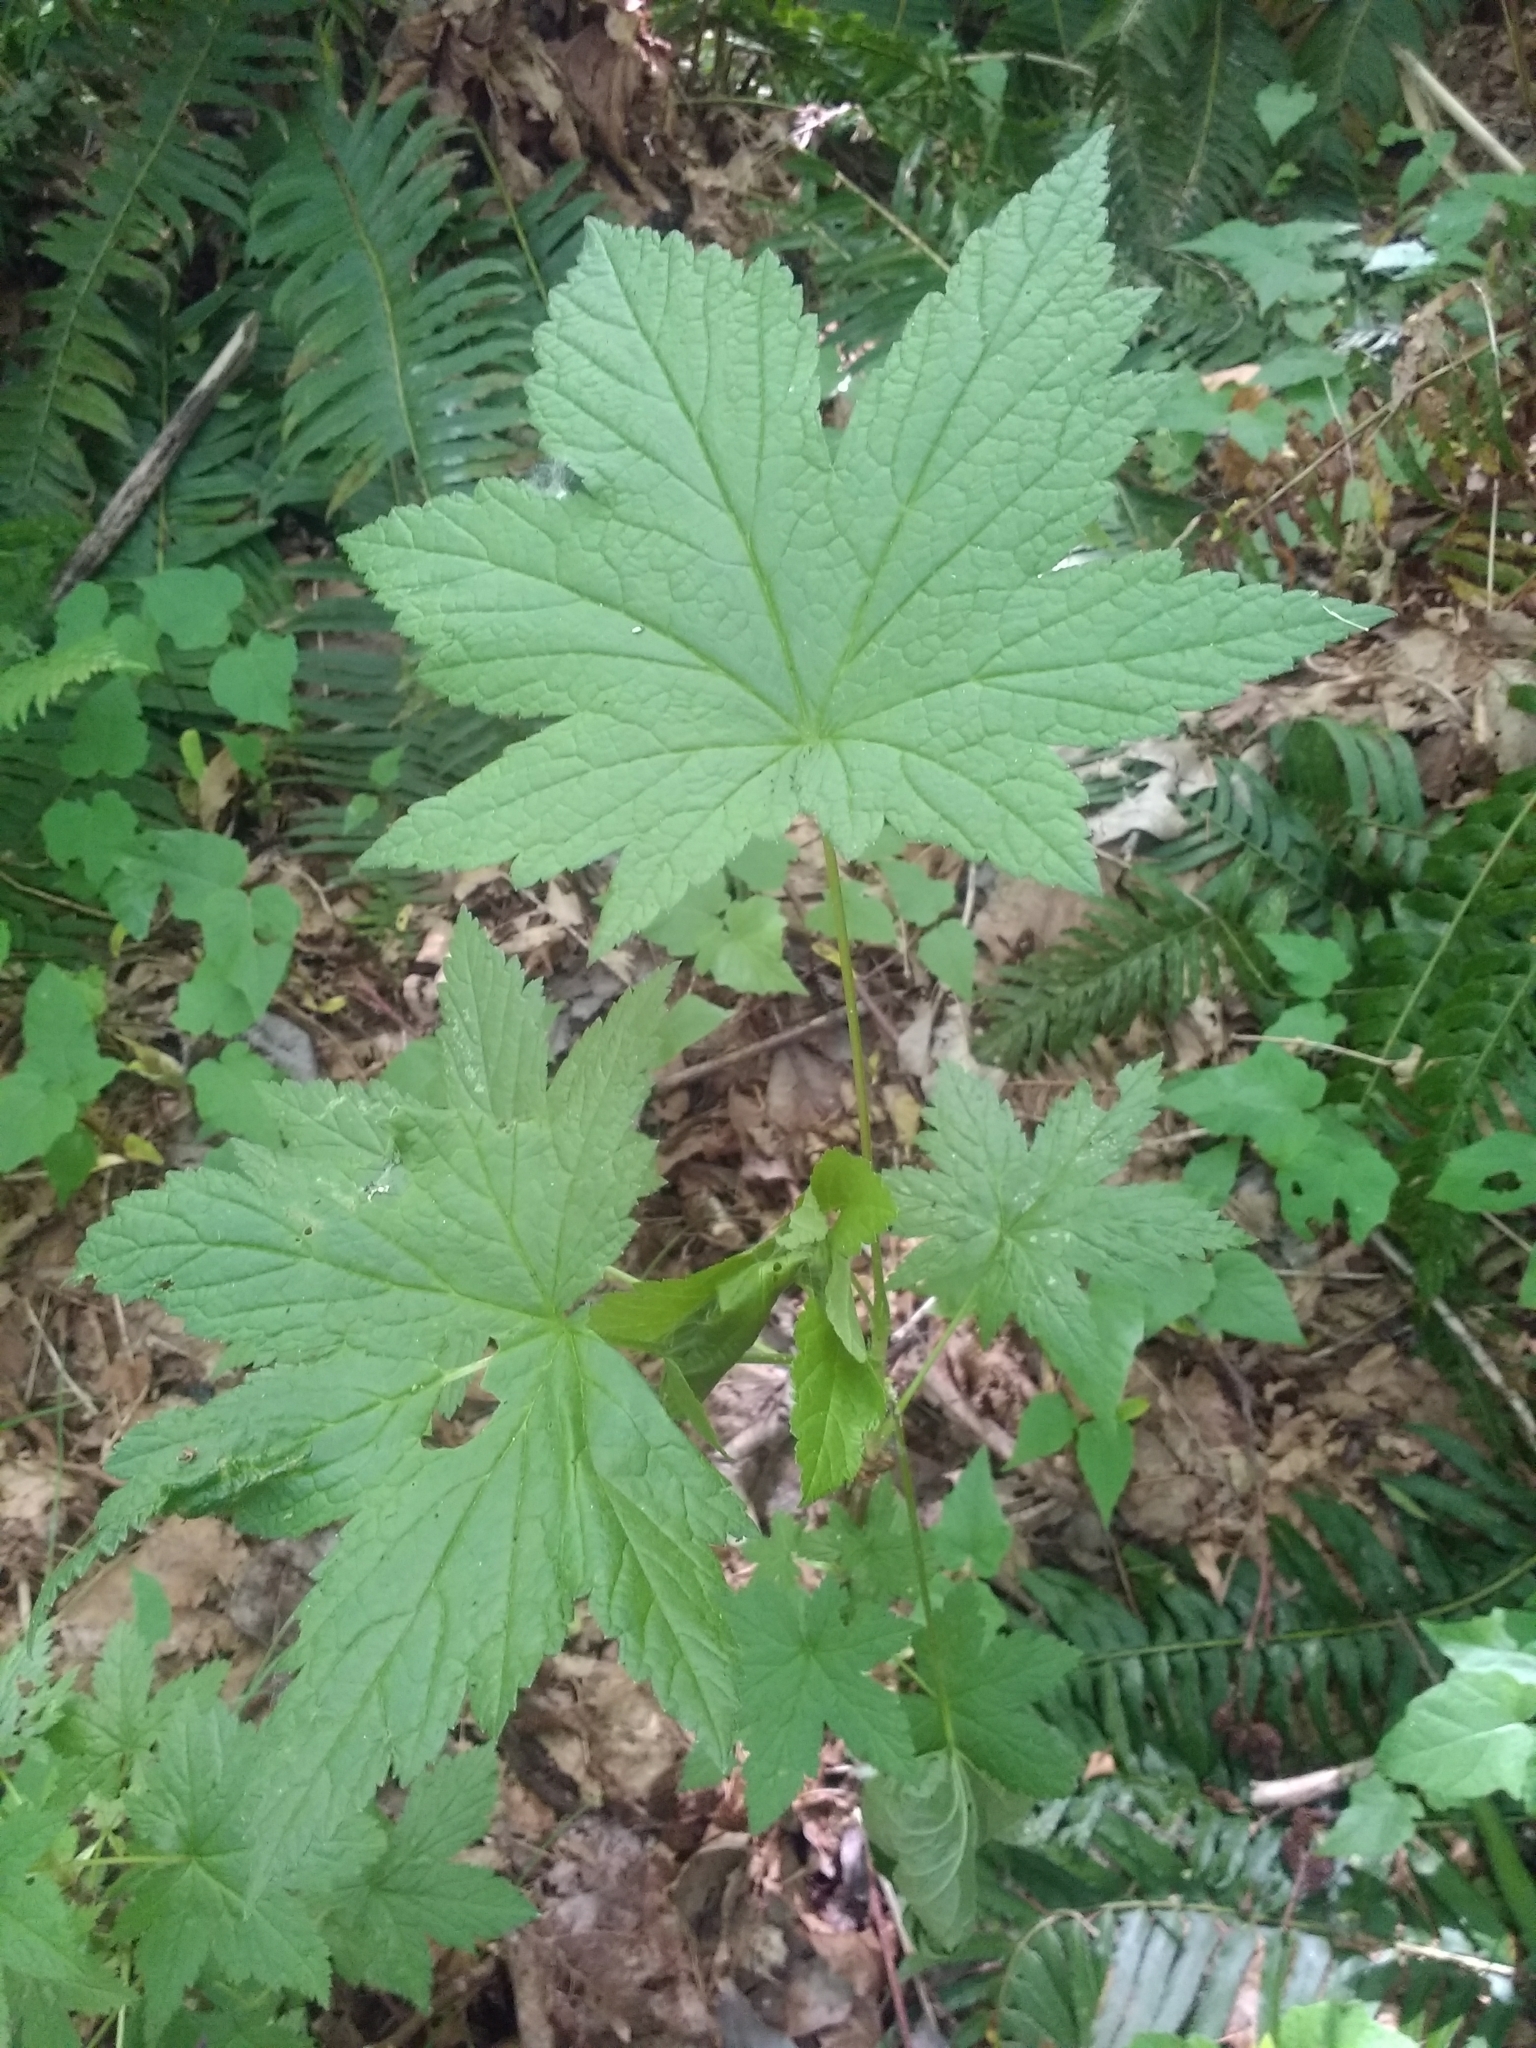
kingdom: Plantae
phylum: Tracheophyta
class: Magnoliopsida
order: Saxifragales
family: Grossulariaceae
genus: Ribes
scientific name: Ribes bracteosum
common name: California black currant
